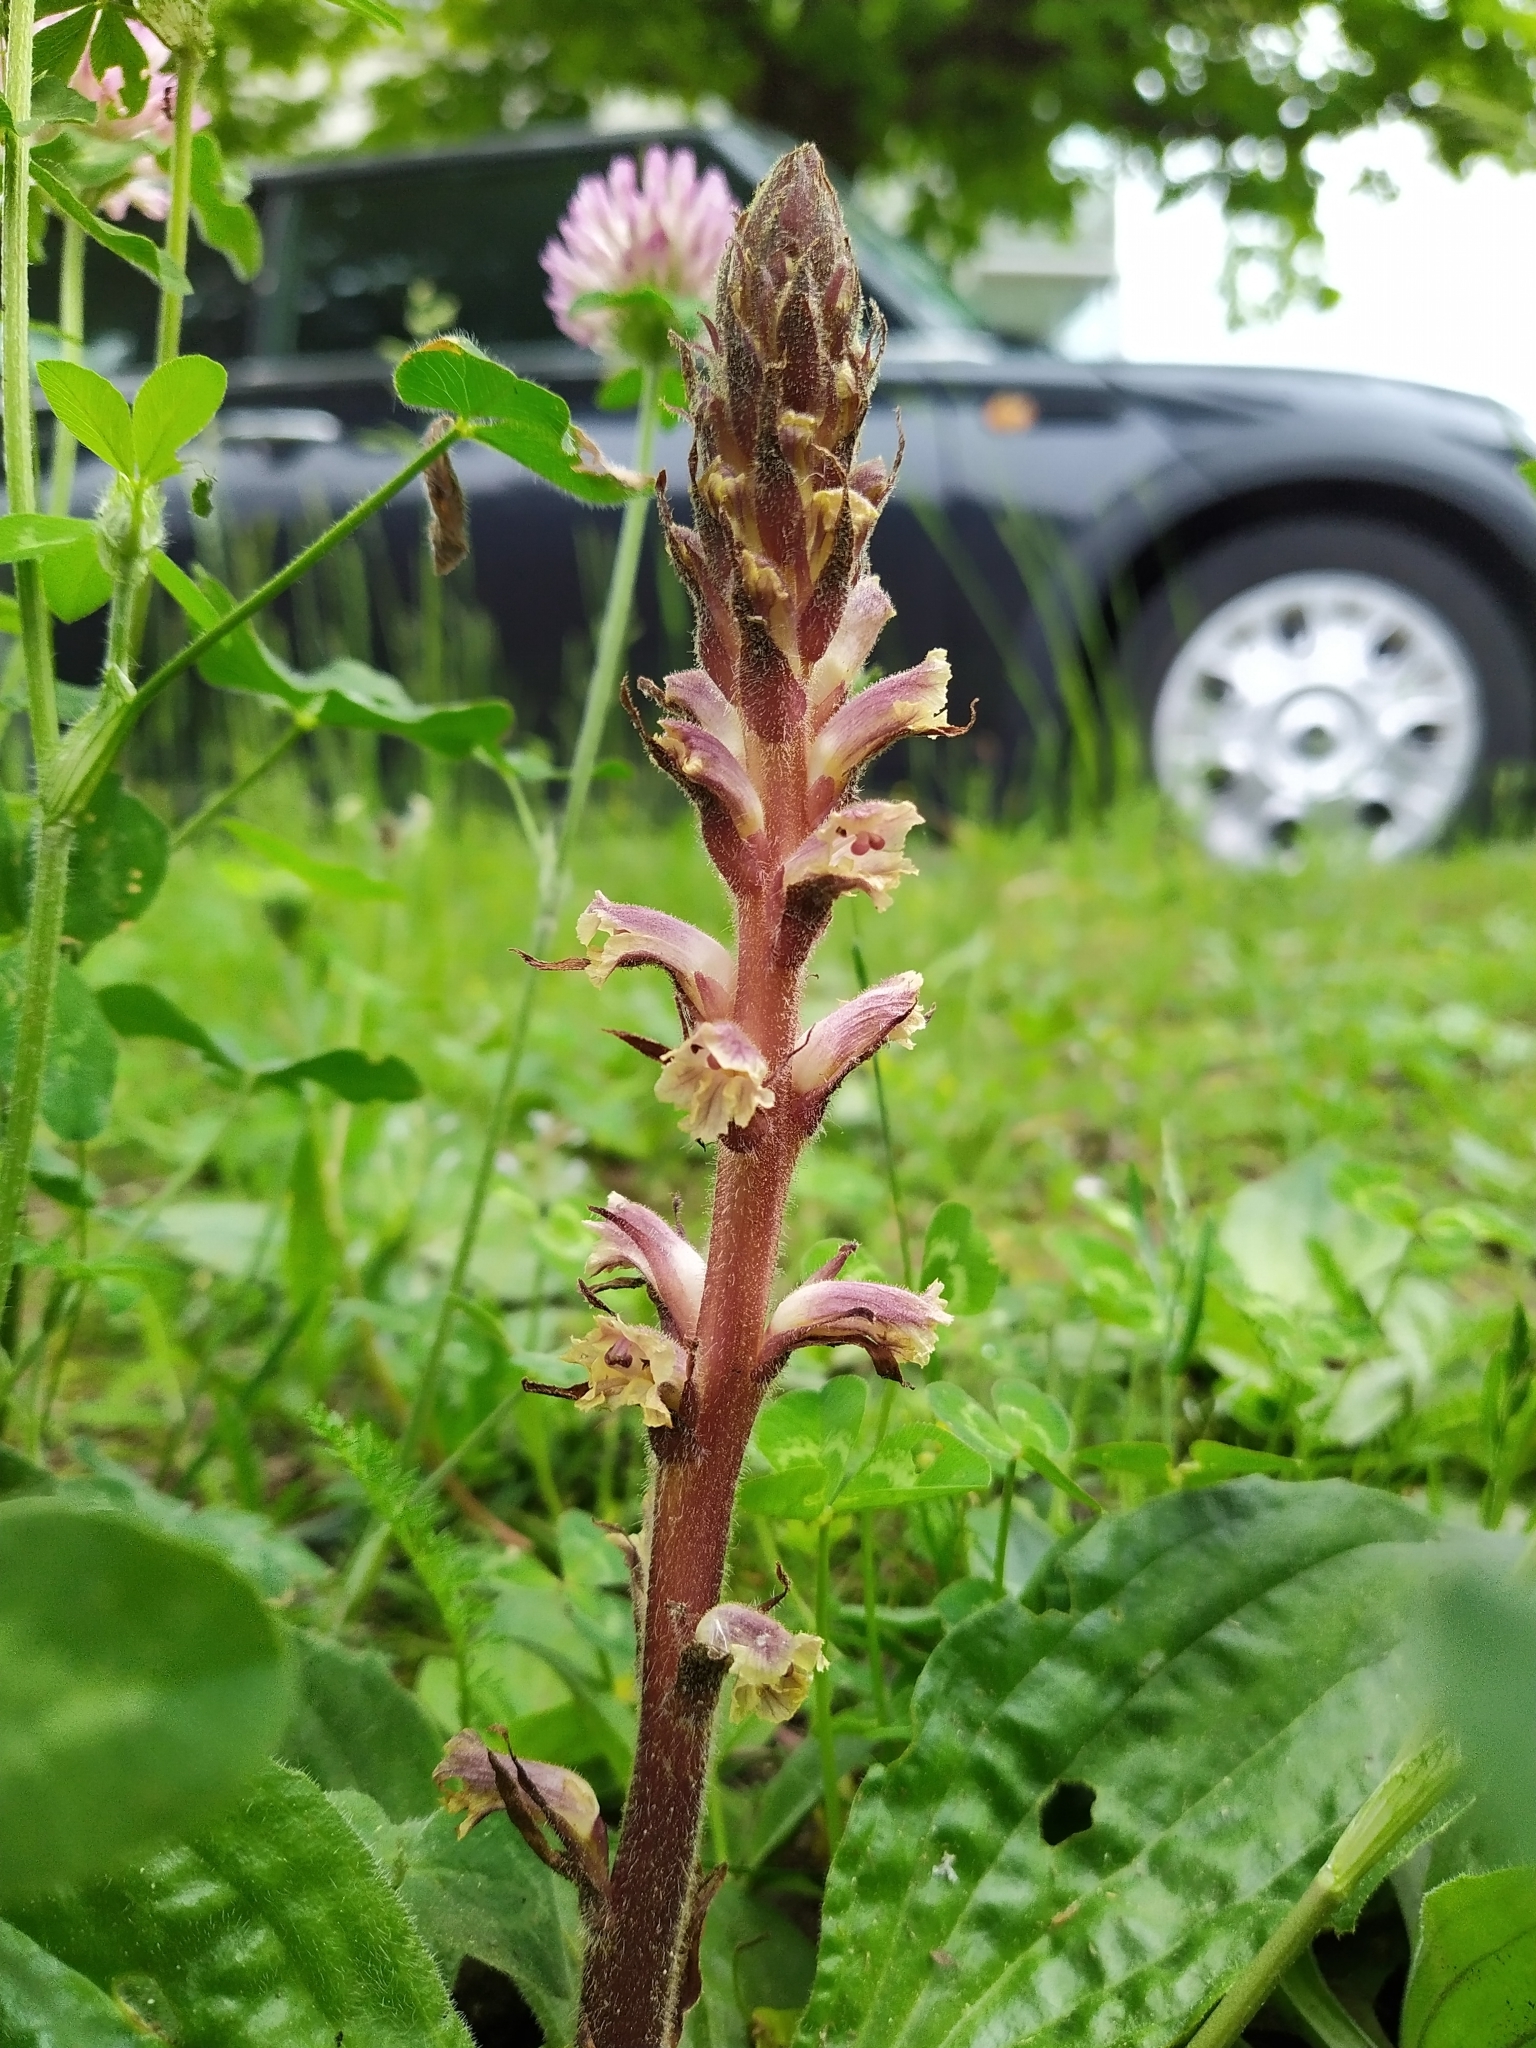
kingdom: Plantae
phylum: Tracheophyta
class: Magnoliopsida
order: Lamiales
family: Orobanchaceae
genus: Orobanche
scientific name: Orobanche minor
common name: Common broomrape
